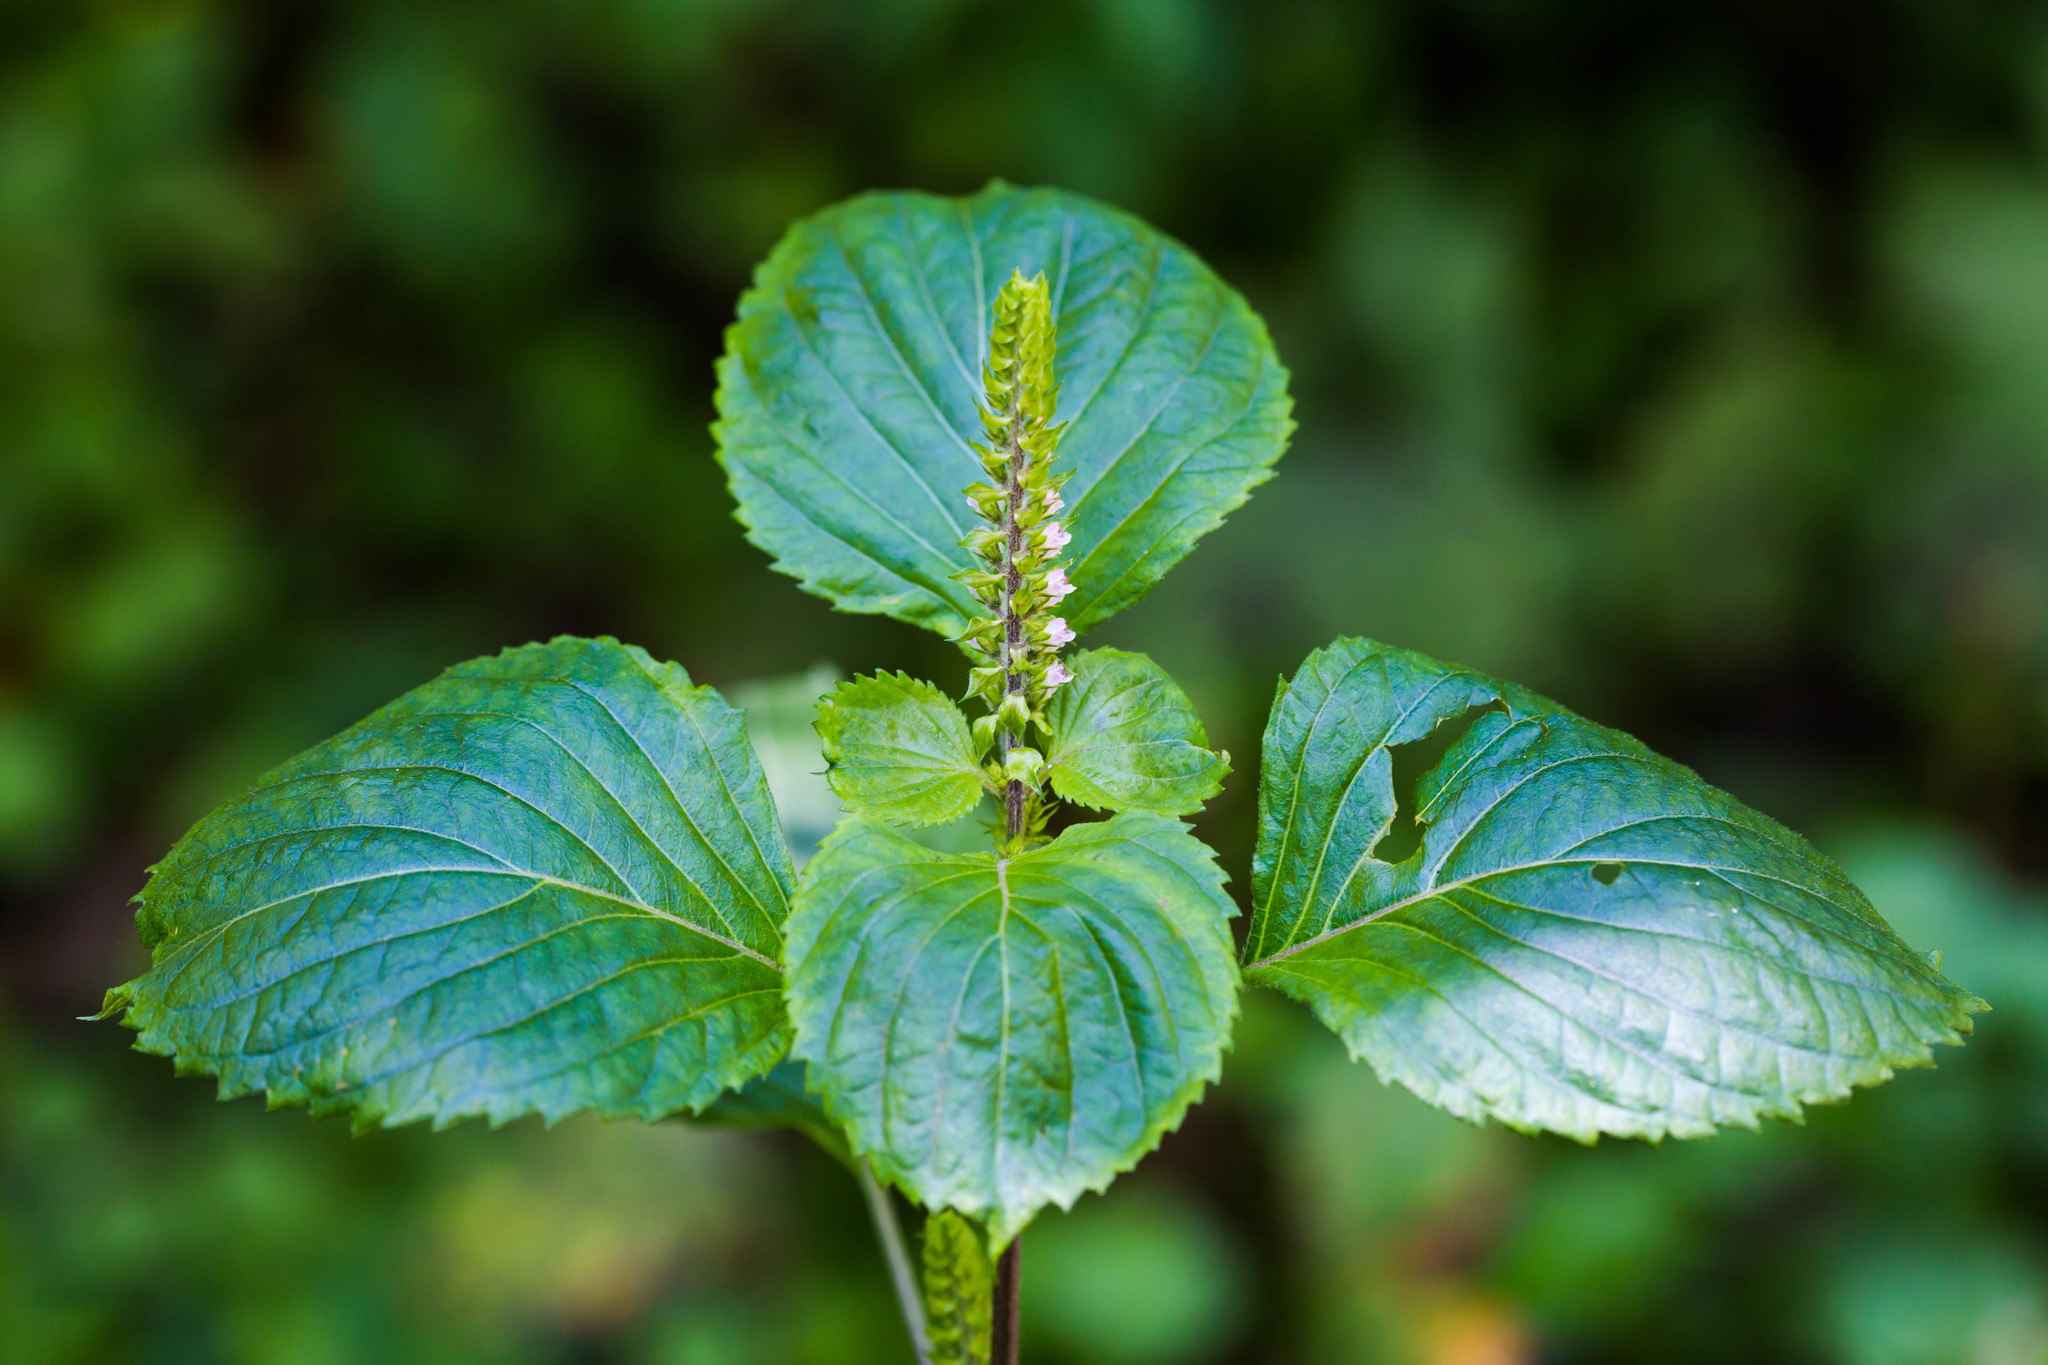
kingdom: Plantae
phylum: Tracheophyta
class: Magnoliopsida
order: Lamiales
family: Lamiaceae
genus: Perilla
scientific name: Perilla frutescens
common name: Perilla
